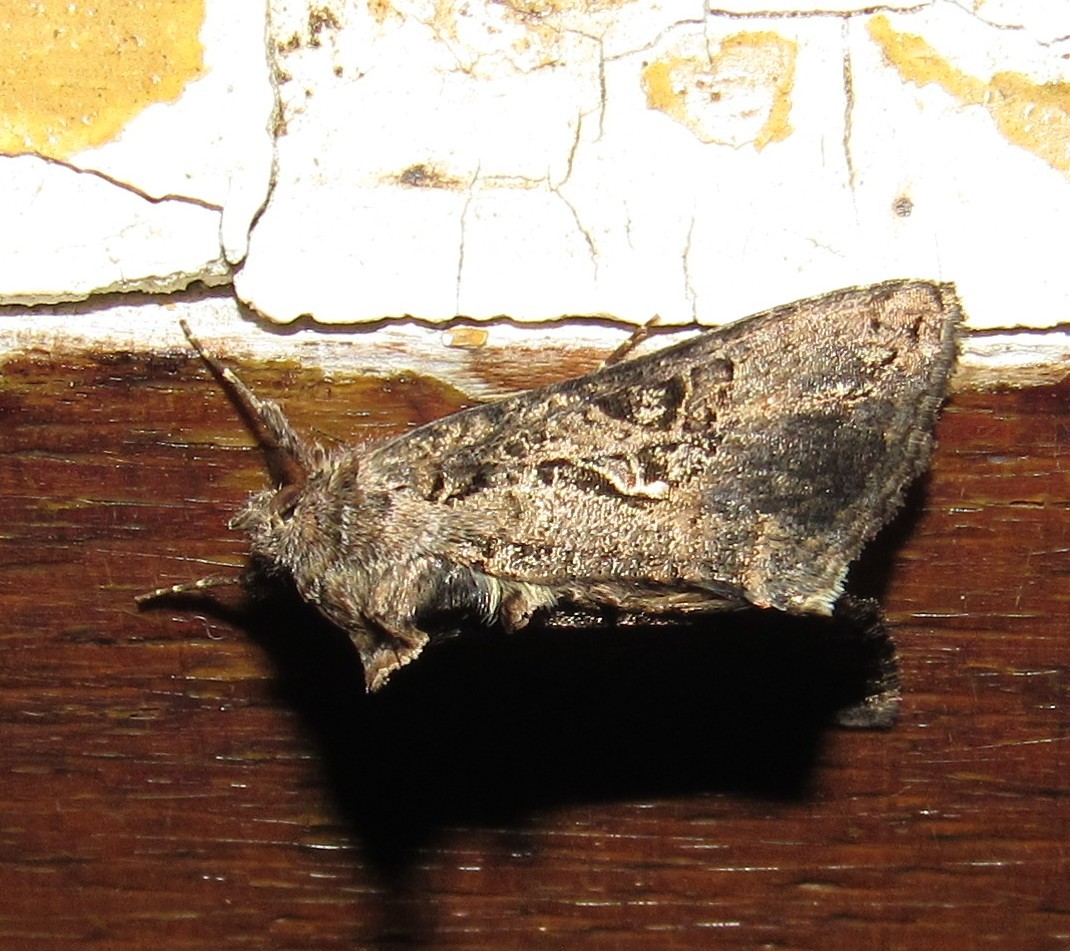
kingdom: Animalia
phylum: Arthropoda
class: Insecta
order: Lepidoptera
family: Noctuidae
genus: Rachiplusia
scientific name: Rachiplusia nu
